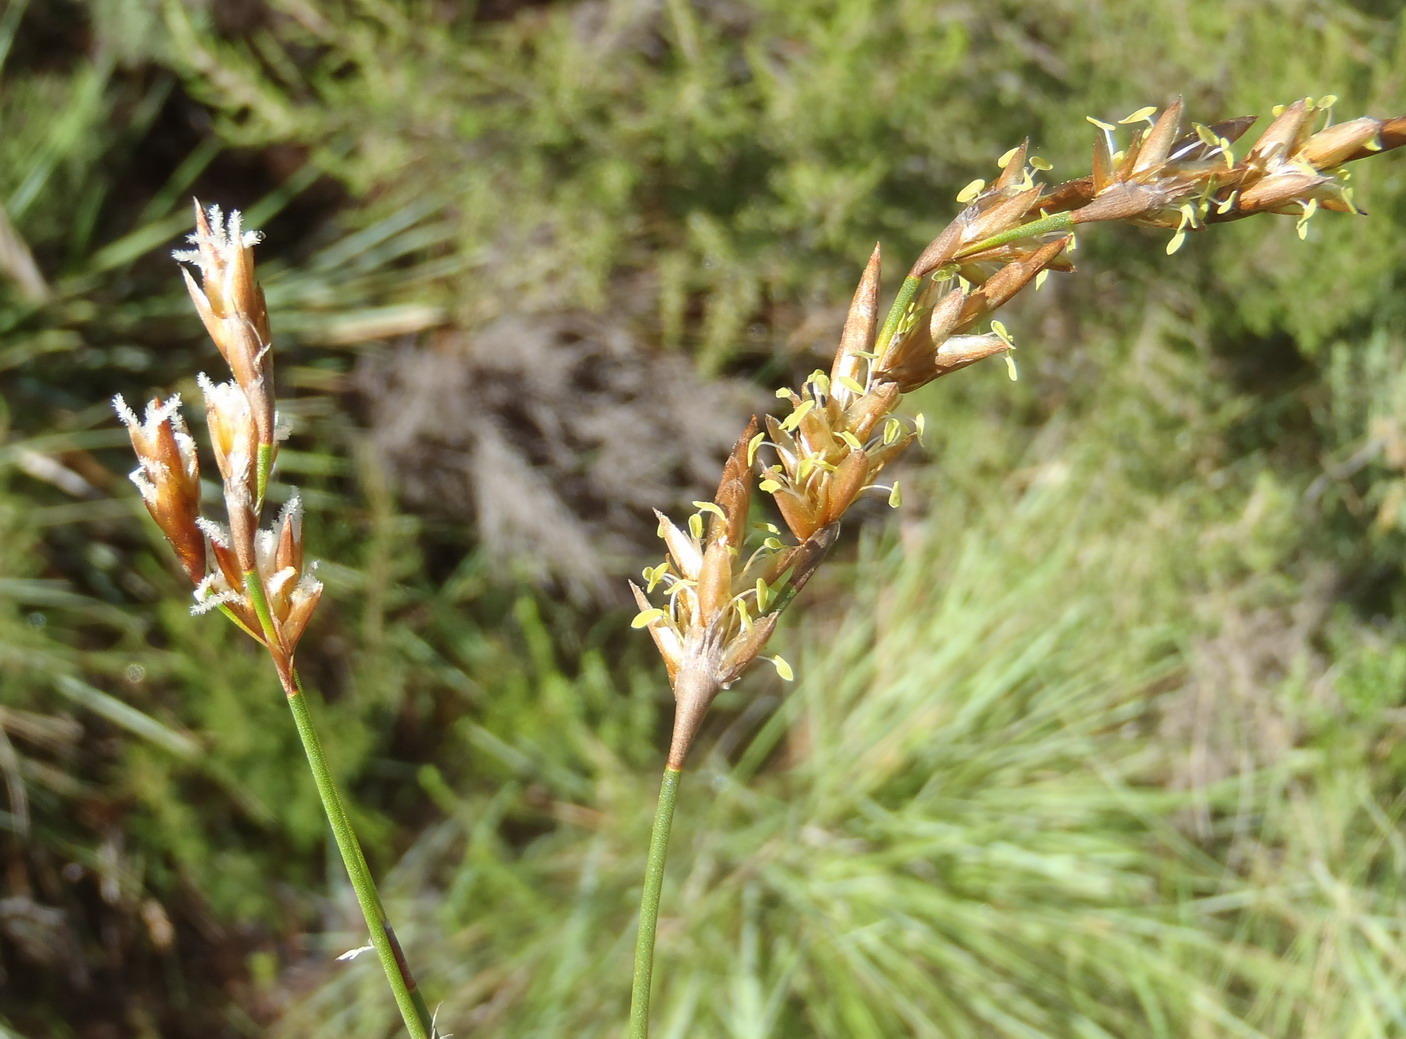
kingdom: Plantae
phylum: Tracheophyta
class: Liliopsida
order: Poales
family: Restionaceae
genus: Restio
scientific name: Restio triticeus
